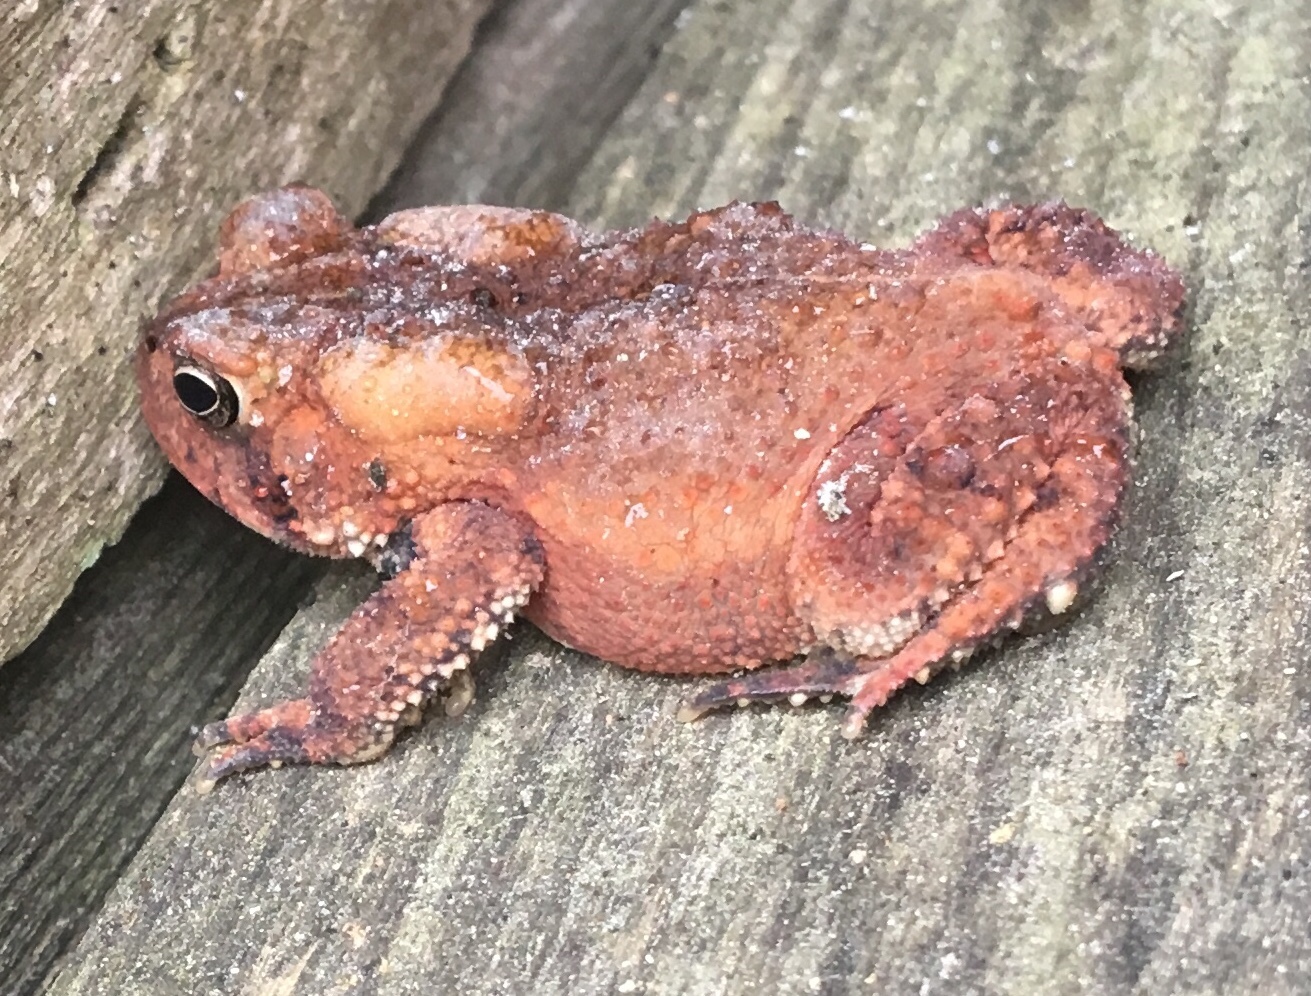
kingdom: Animalia
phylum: Chordata
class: Amphibia
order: Anura
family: Bufonidae
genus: Anaxyrus
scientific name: Anaxyrus americanus
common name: American toad
